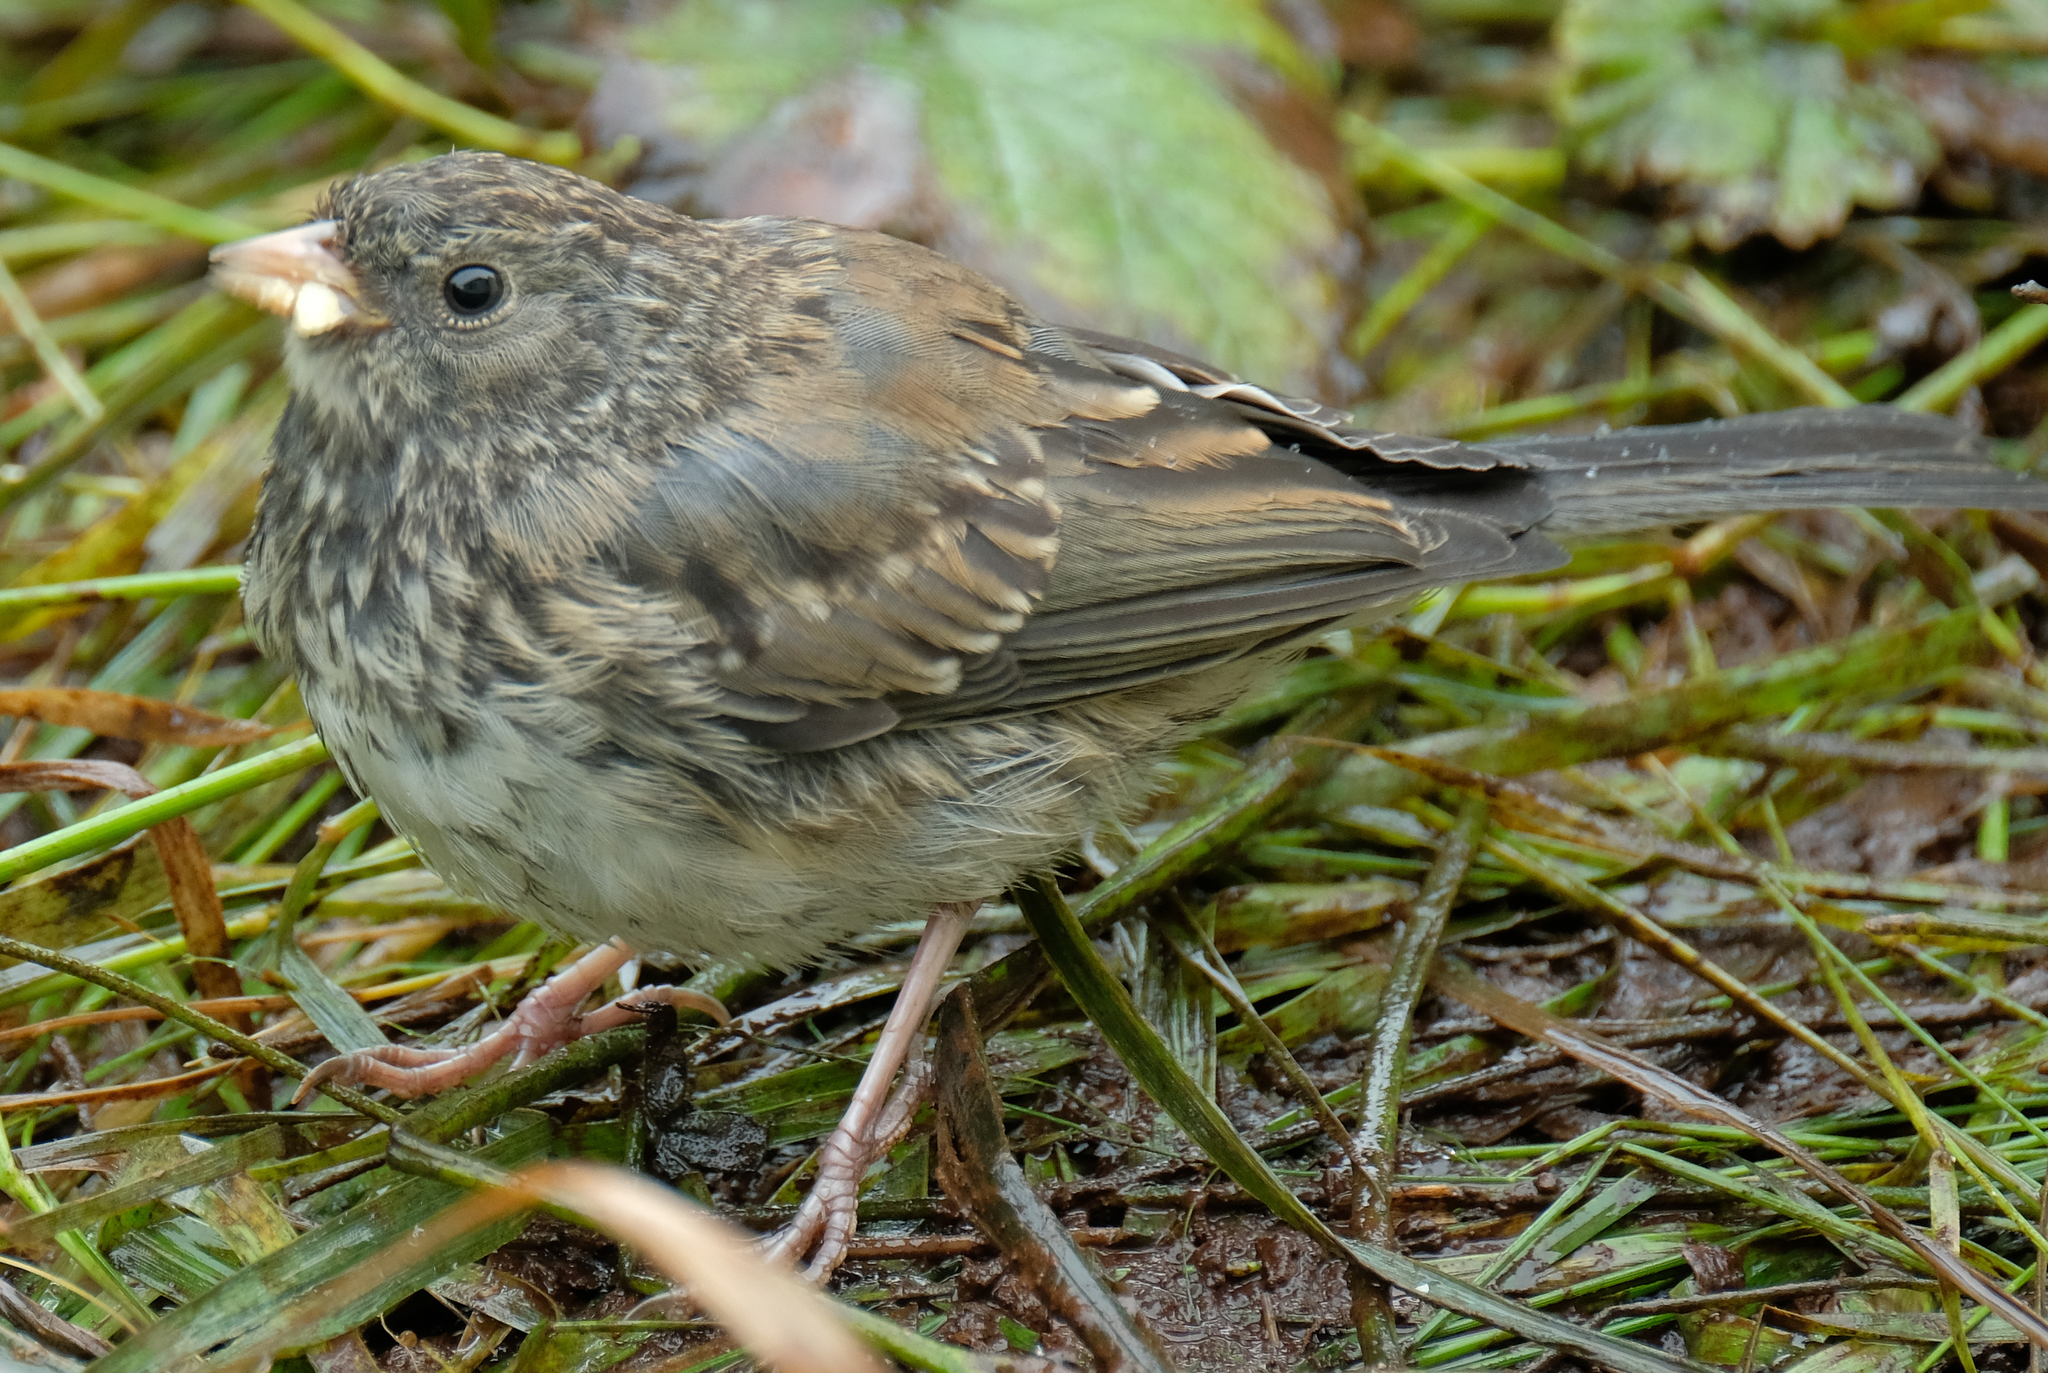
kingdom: Animalia
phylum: Chordata
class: Aves
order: Passeriformes
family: Passerellidae
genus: Junco
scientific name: Junco hyemalis
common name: Dark-eyed junco
